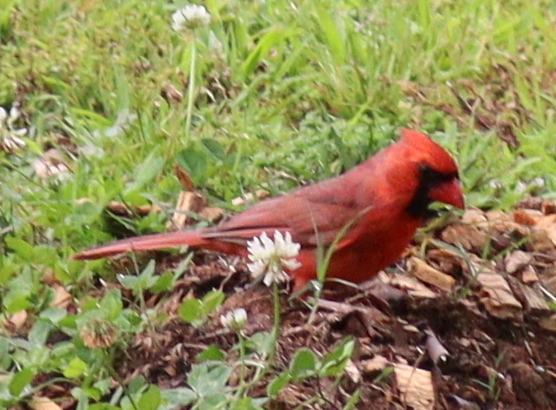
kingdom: Animalia
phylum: Chordata
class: Aves
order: Passeriformes
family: Cardinalidae
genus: Cardinalis
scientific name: Cardinalis cardinalis
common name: Northern cardinal
